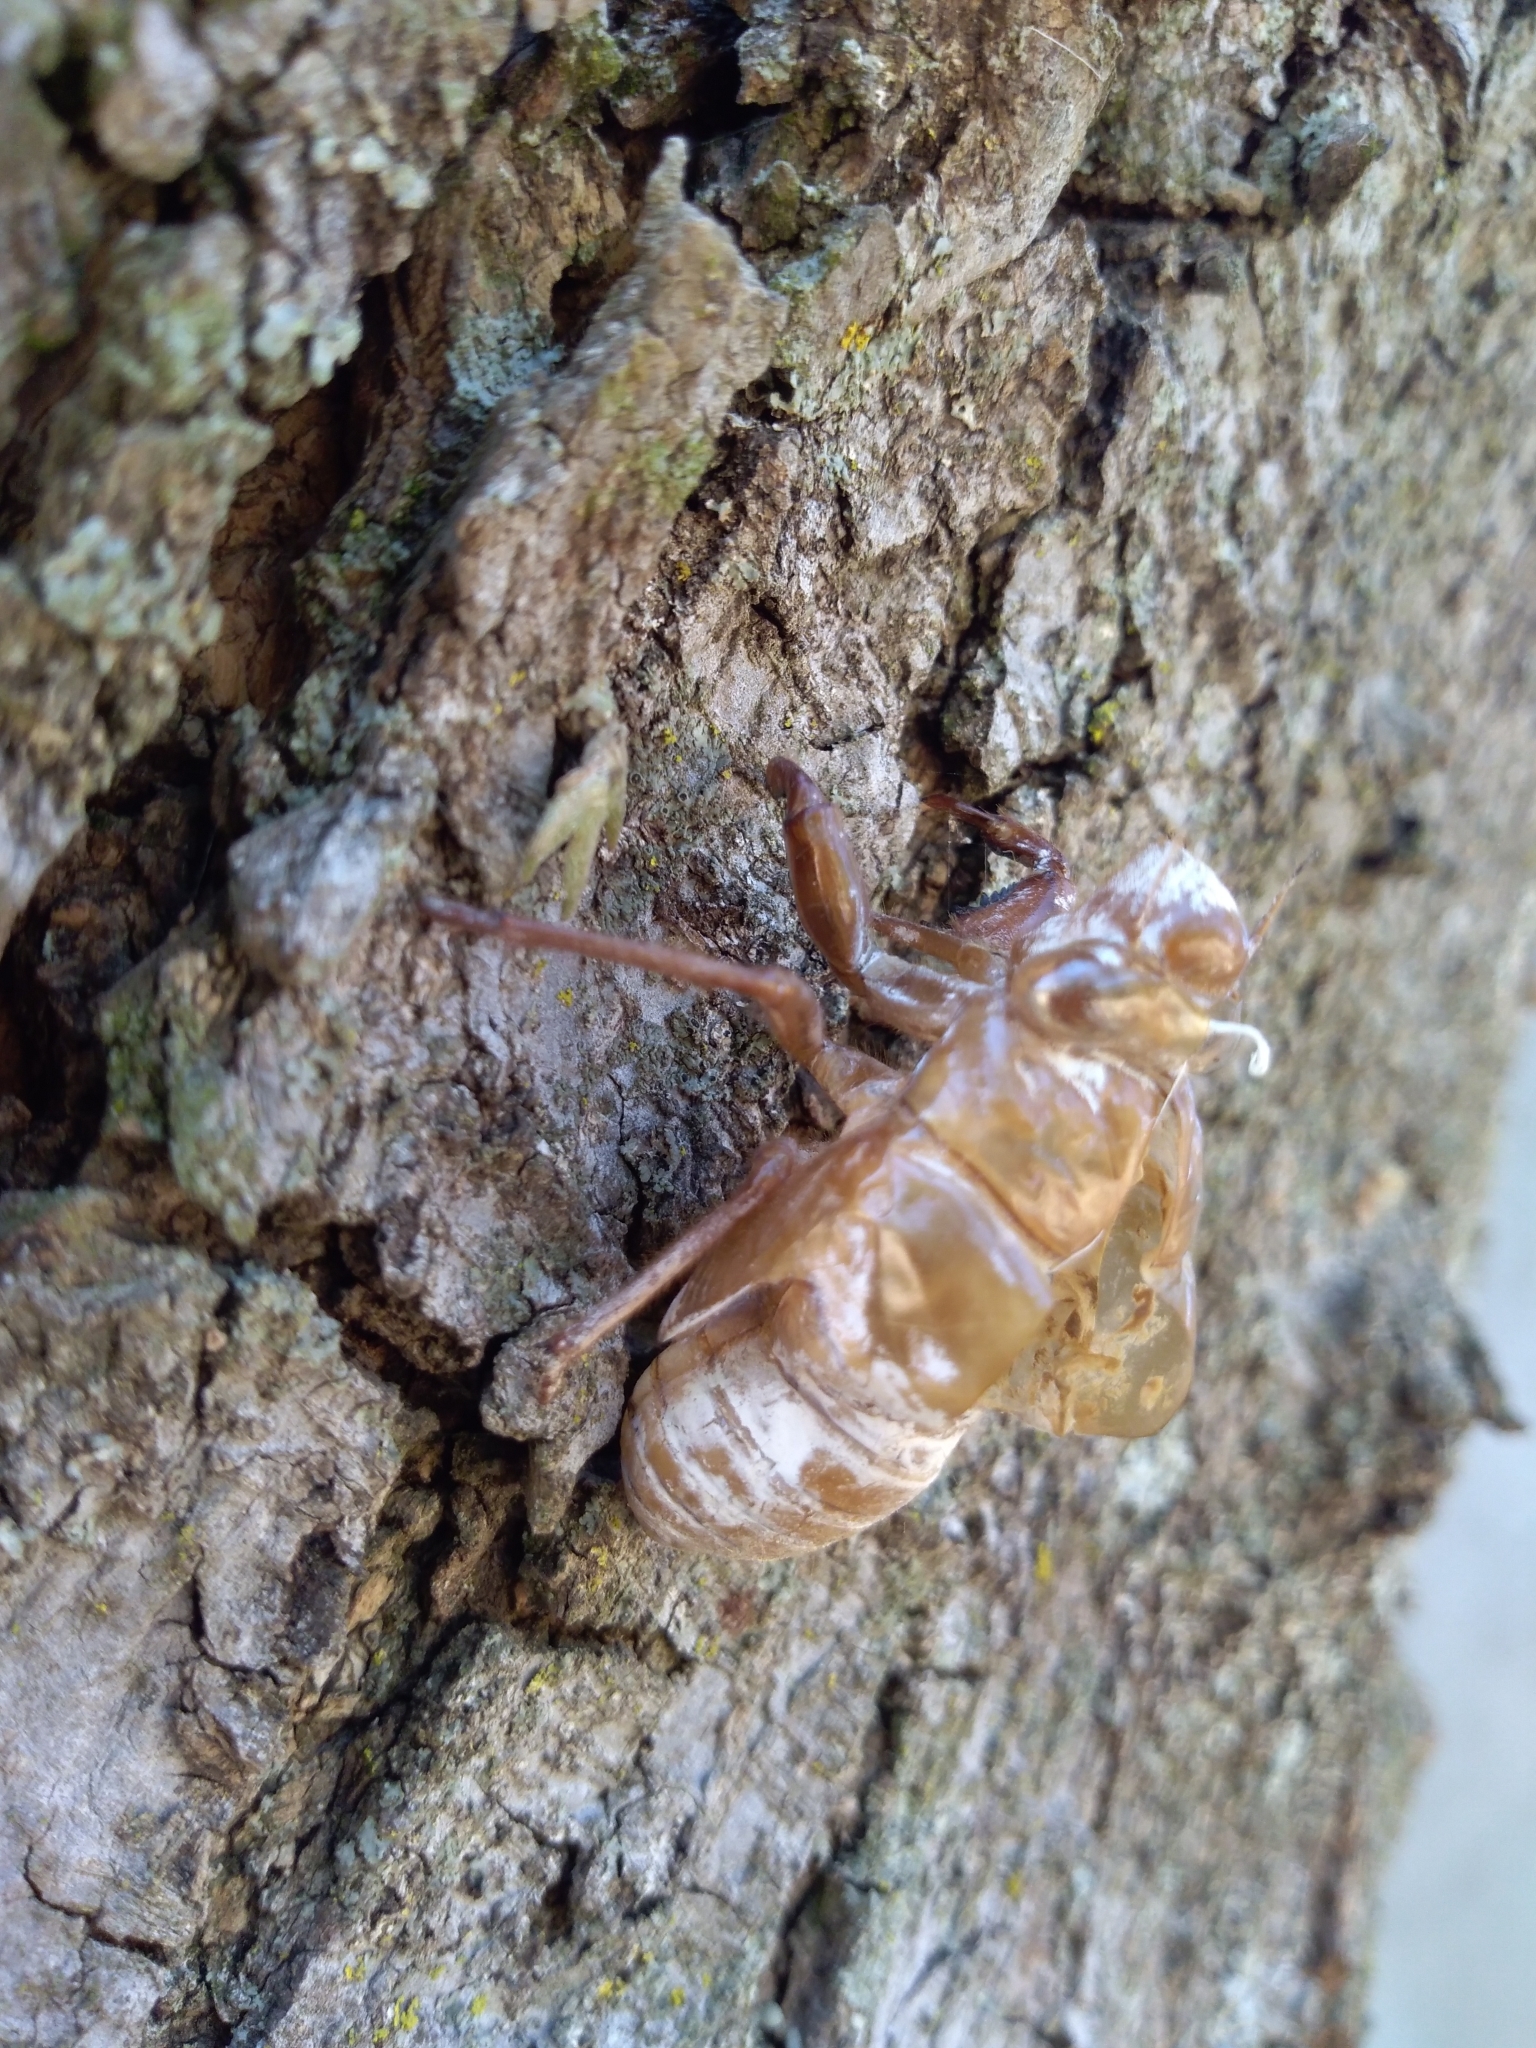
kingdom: Animalia
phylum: Arthropoda
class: Insecta
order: Hemiptera
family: Cicadidae
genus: Quesada
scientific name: Quesada gigas
